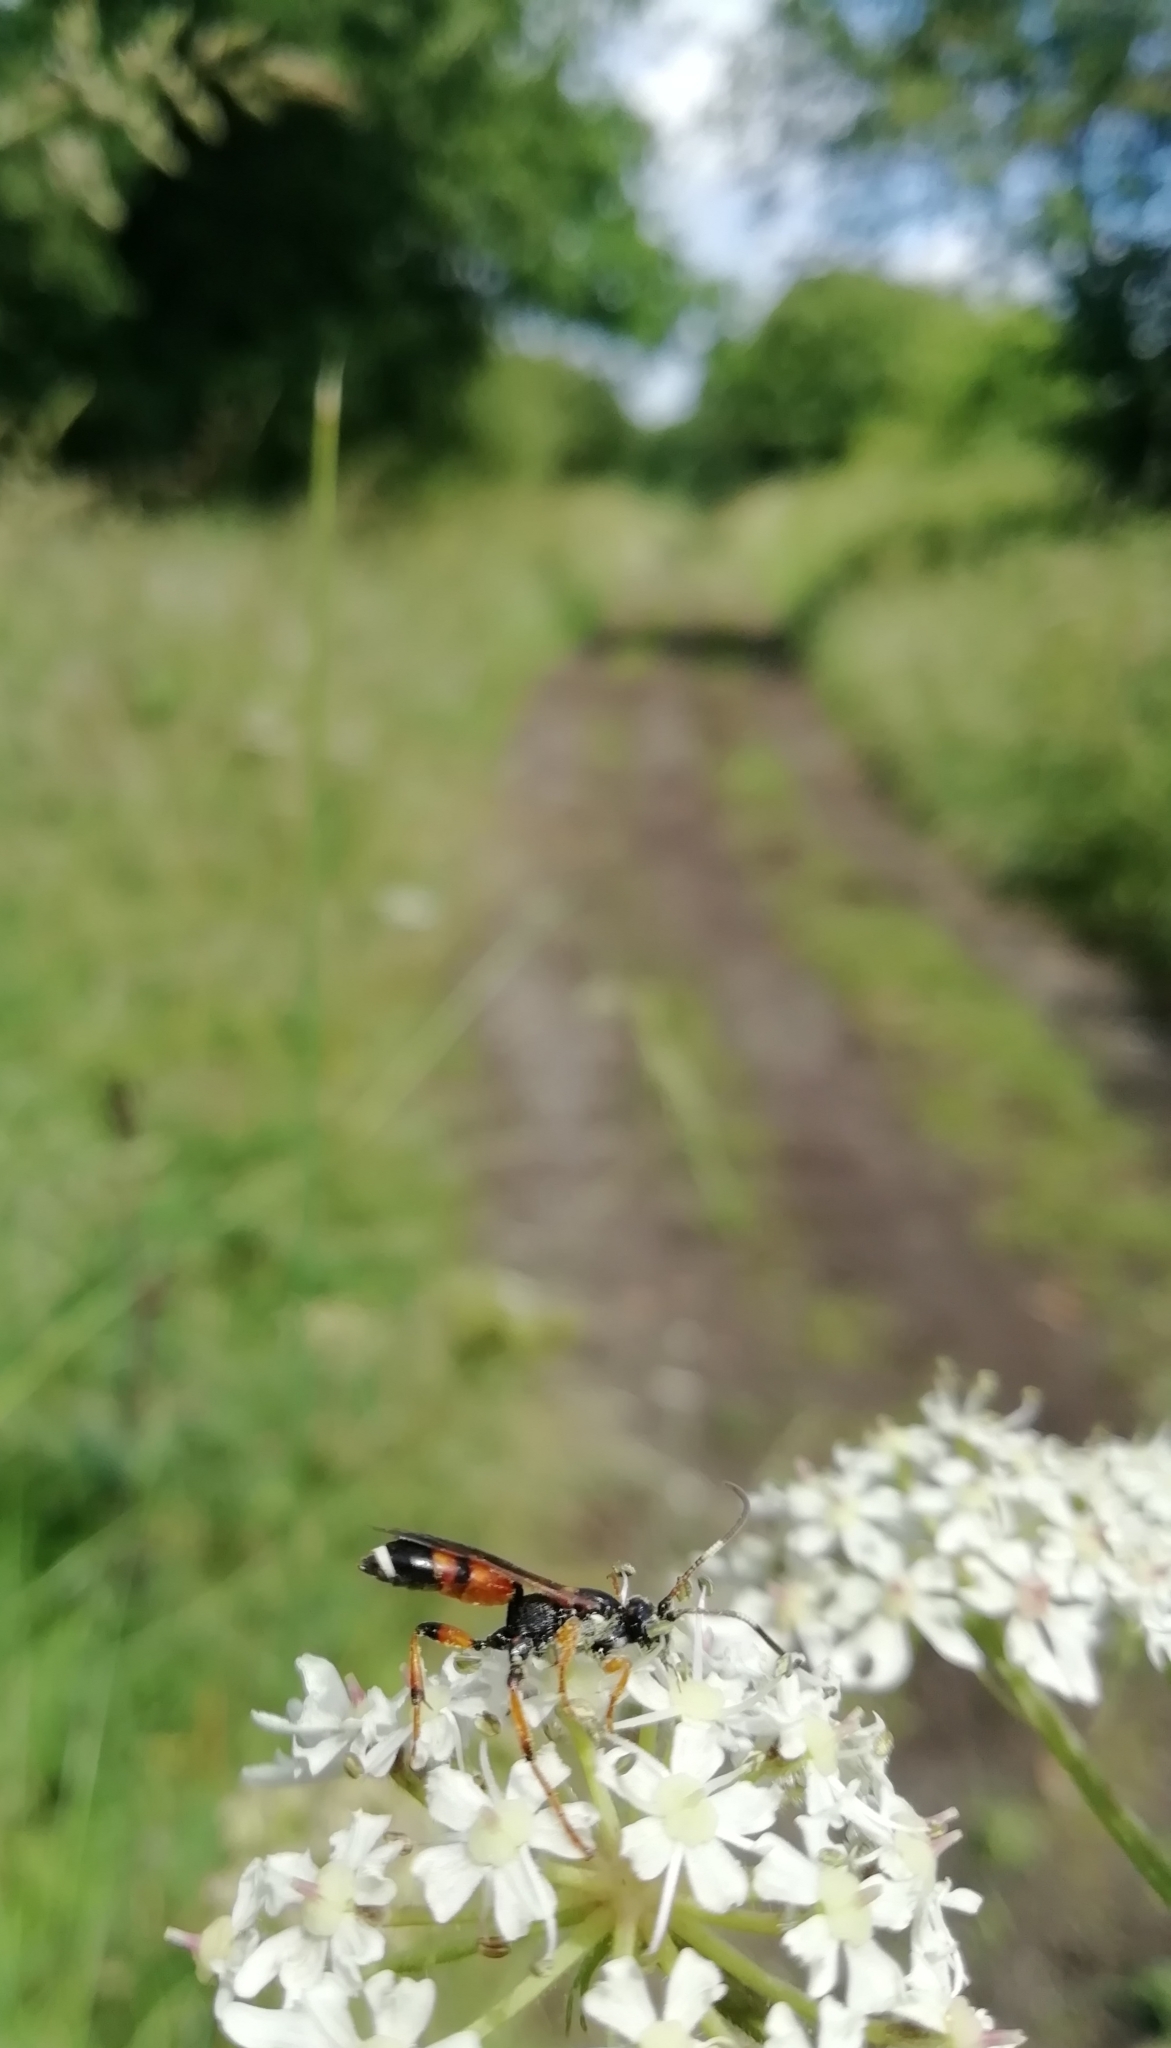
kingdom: Animalia
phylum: Arthropoda
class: Insecta
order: Hymenoptera
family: Ichneumonidae
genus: Ichneumon
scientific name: Ichneumon sarcitorius
